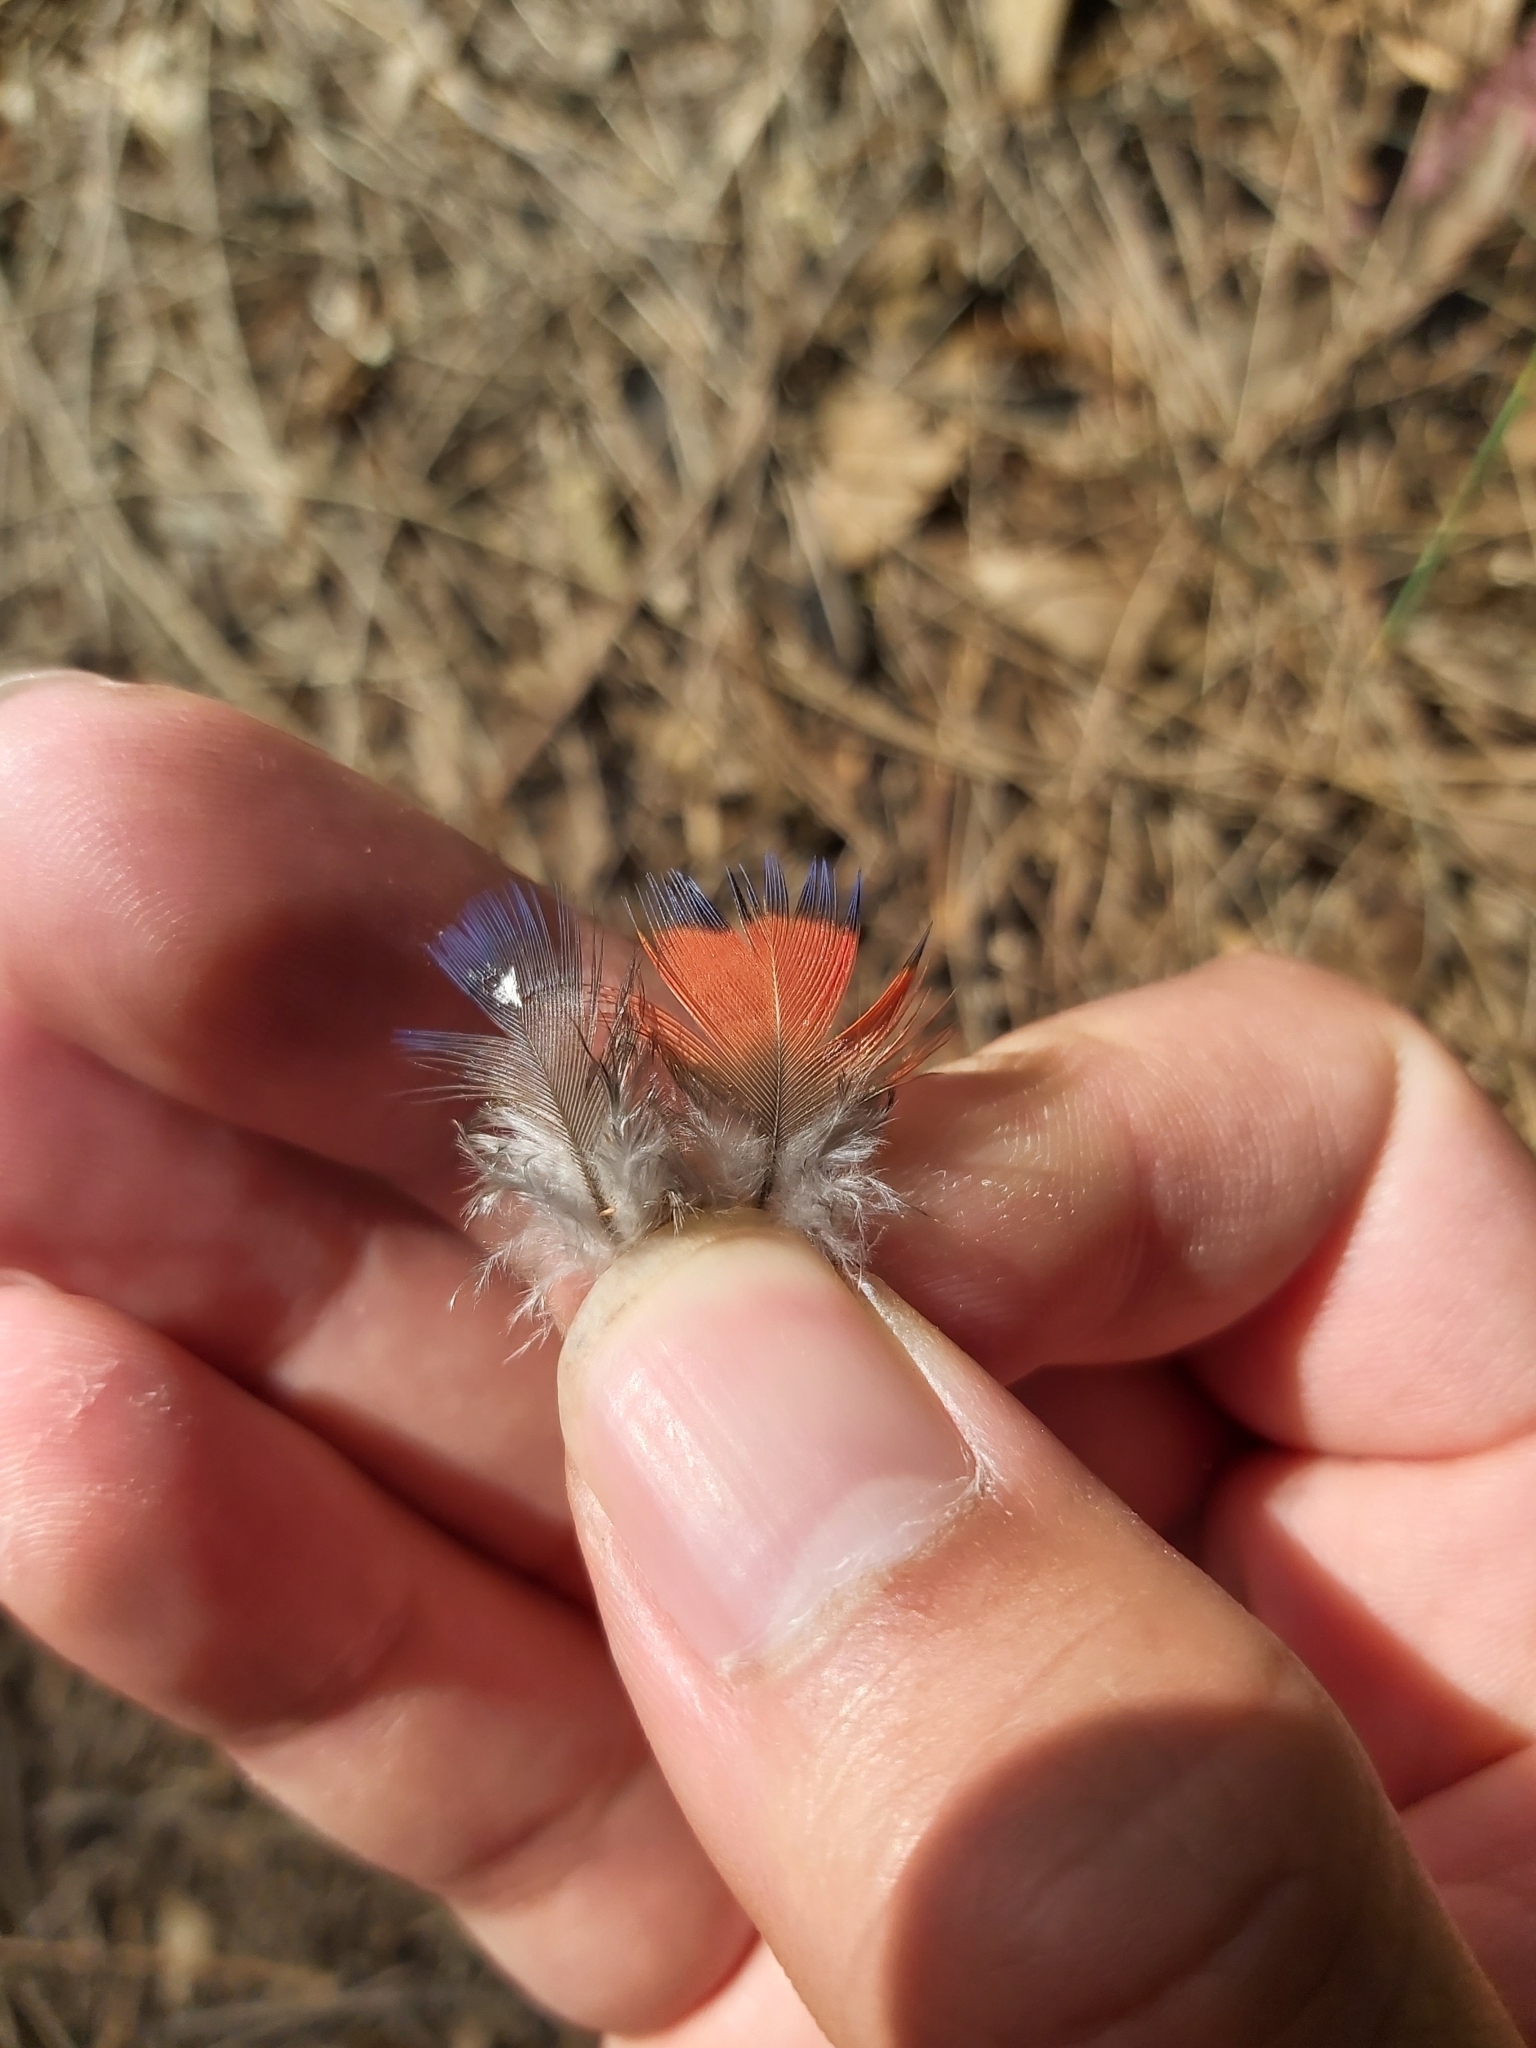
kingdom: Animalia
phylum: Chordata
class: Aves
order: Psittaciformes
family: Psittacidae
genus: Trichoglossus
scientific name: Trichoglossus haematodus
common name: Coconut lorikeet
